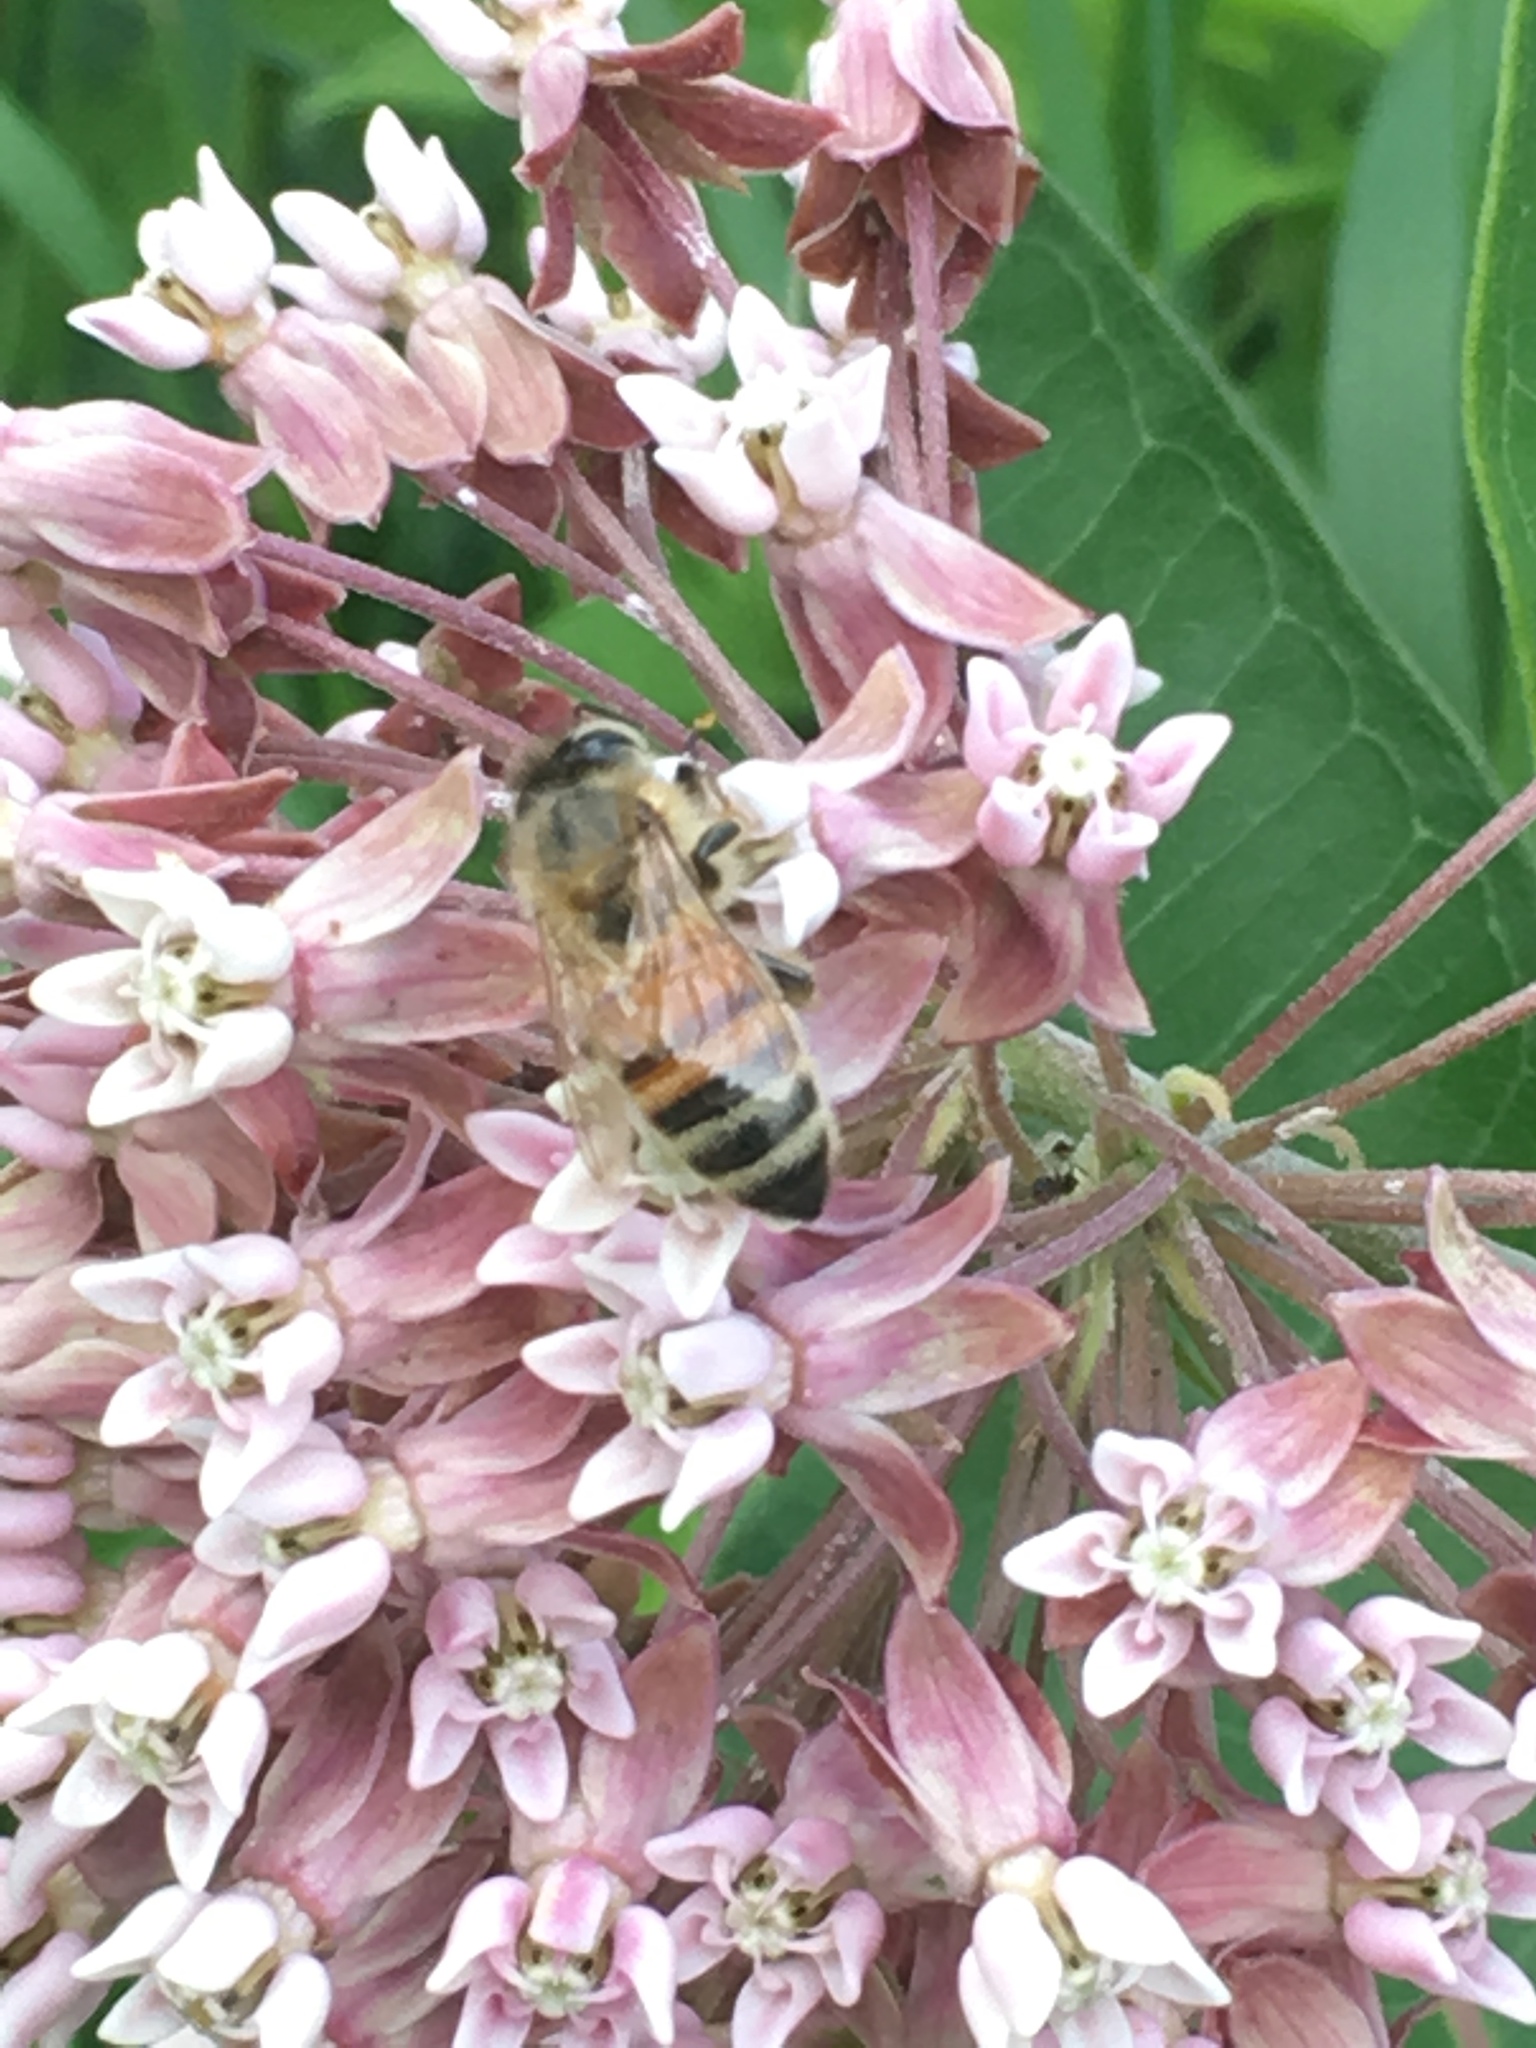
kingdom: Plantae
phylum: Tracheophyta
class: Magnoliopsida
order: Gentianales
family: Apocynaceae
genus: Asclepias
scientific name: Asclepias syriaca
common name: Common milkweed
